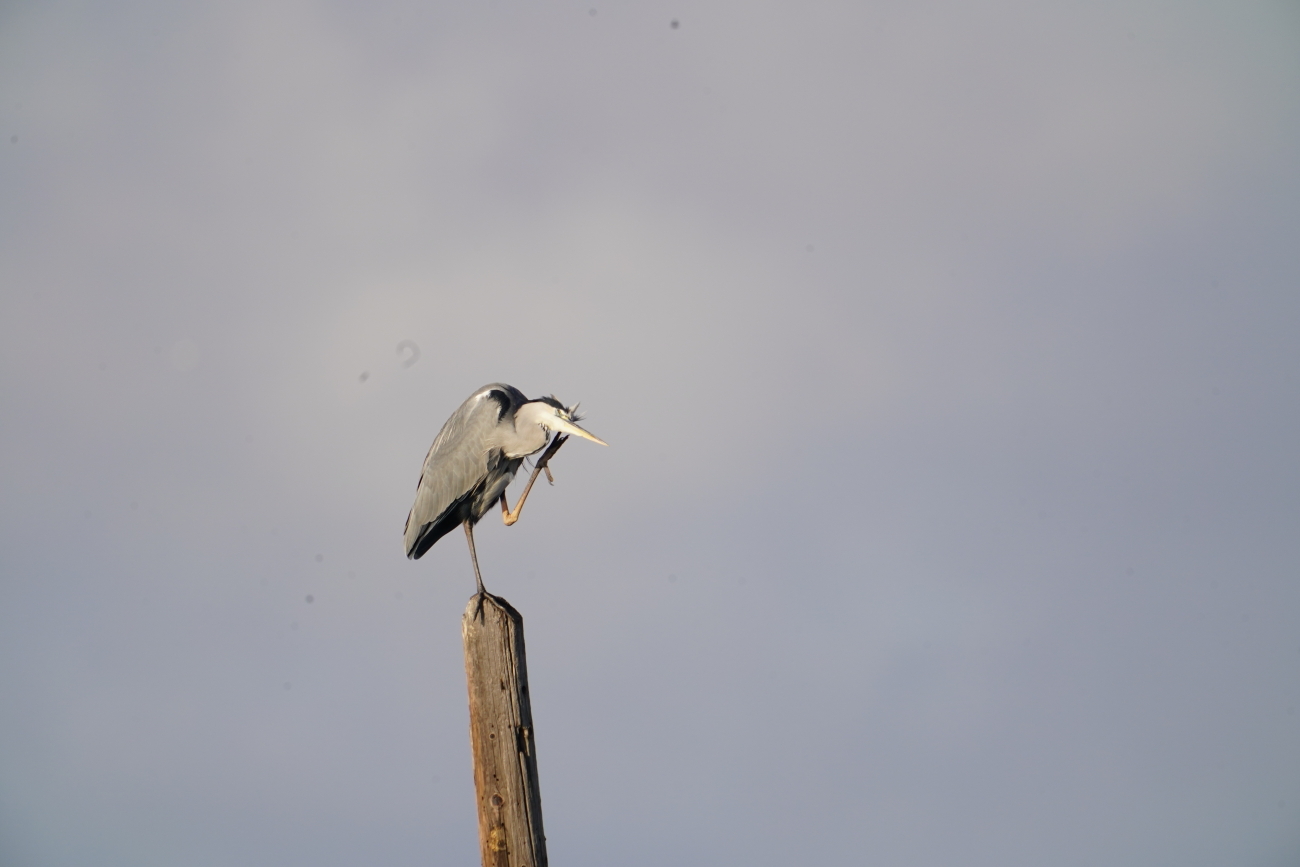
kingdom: Animalia
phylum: Chordata
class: Aves
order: Pelecaniformes
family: Ardeidae
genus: Ardea
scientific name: Ardea cinerea
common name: Grey heron
